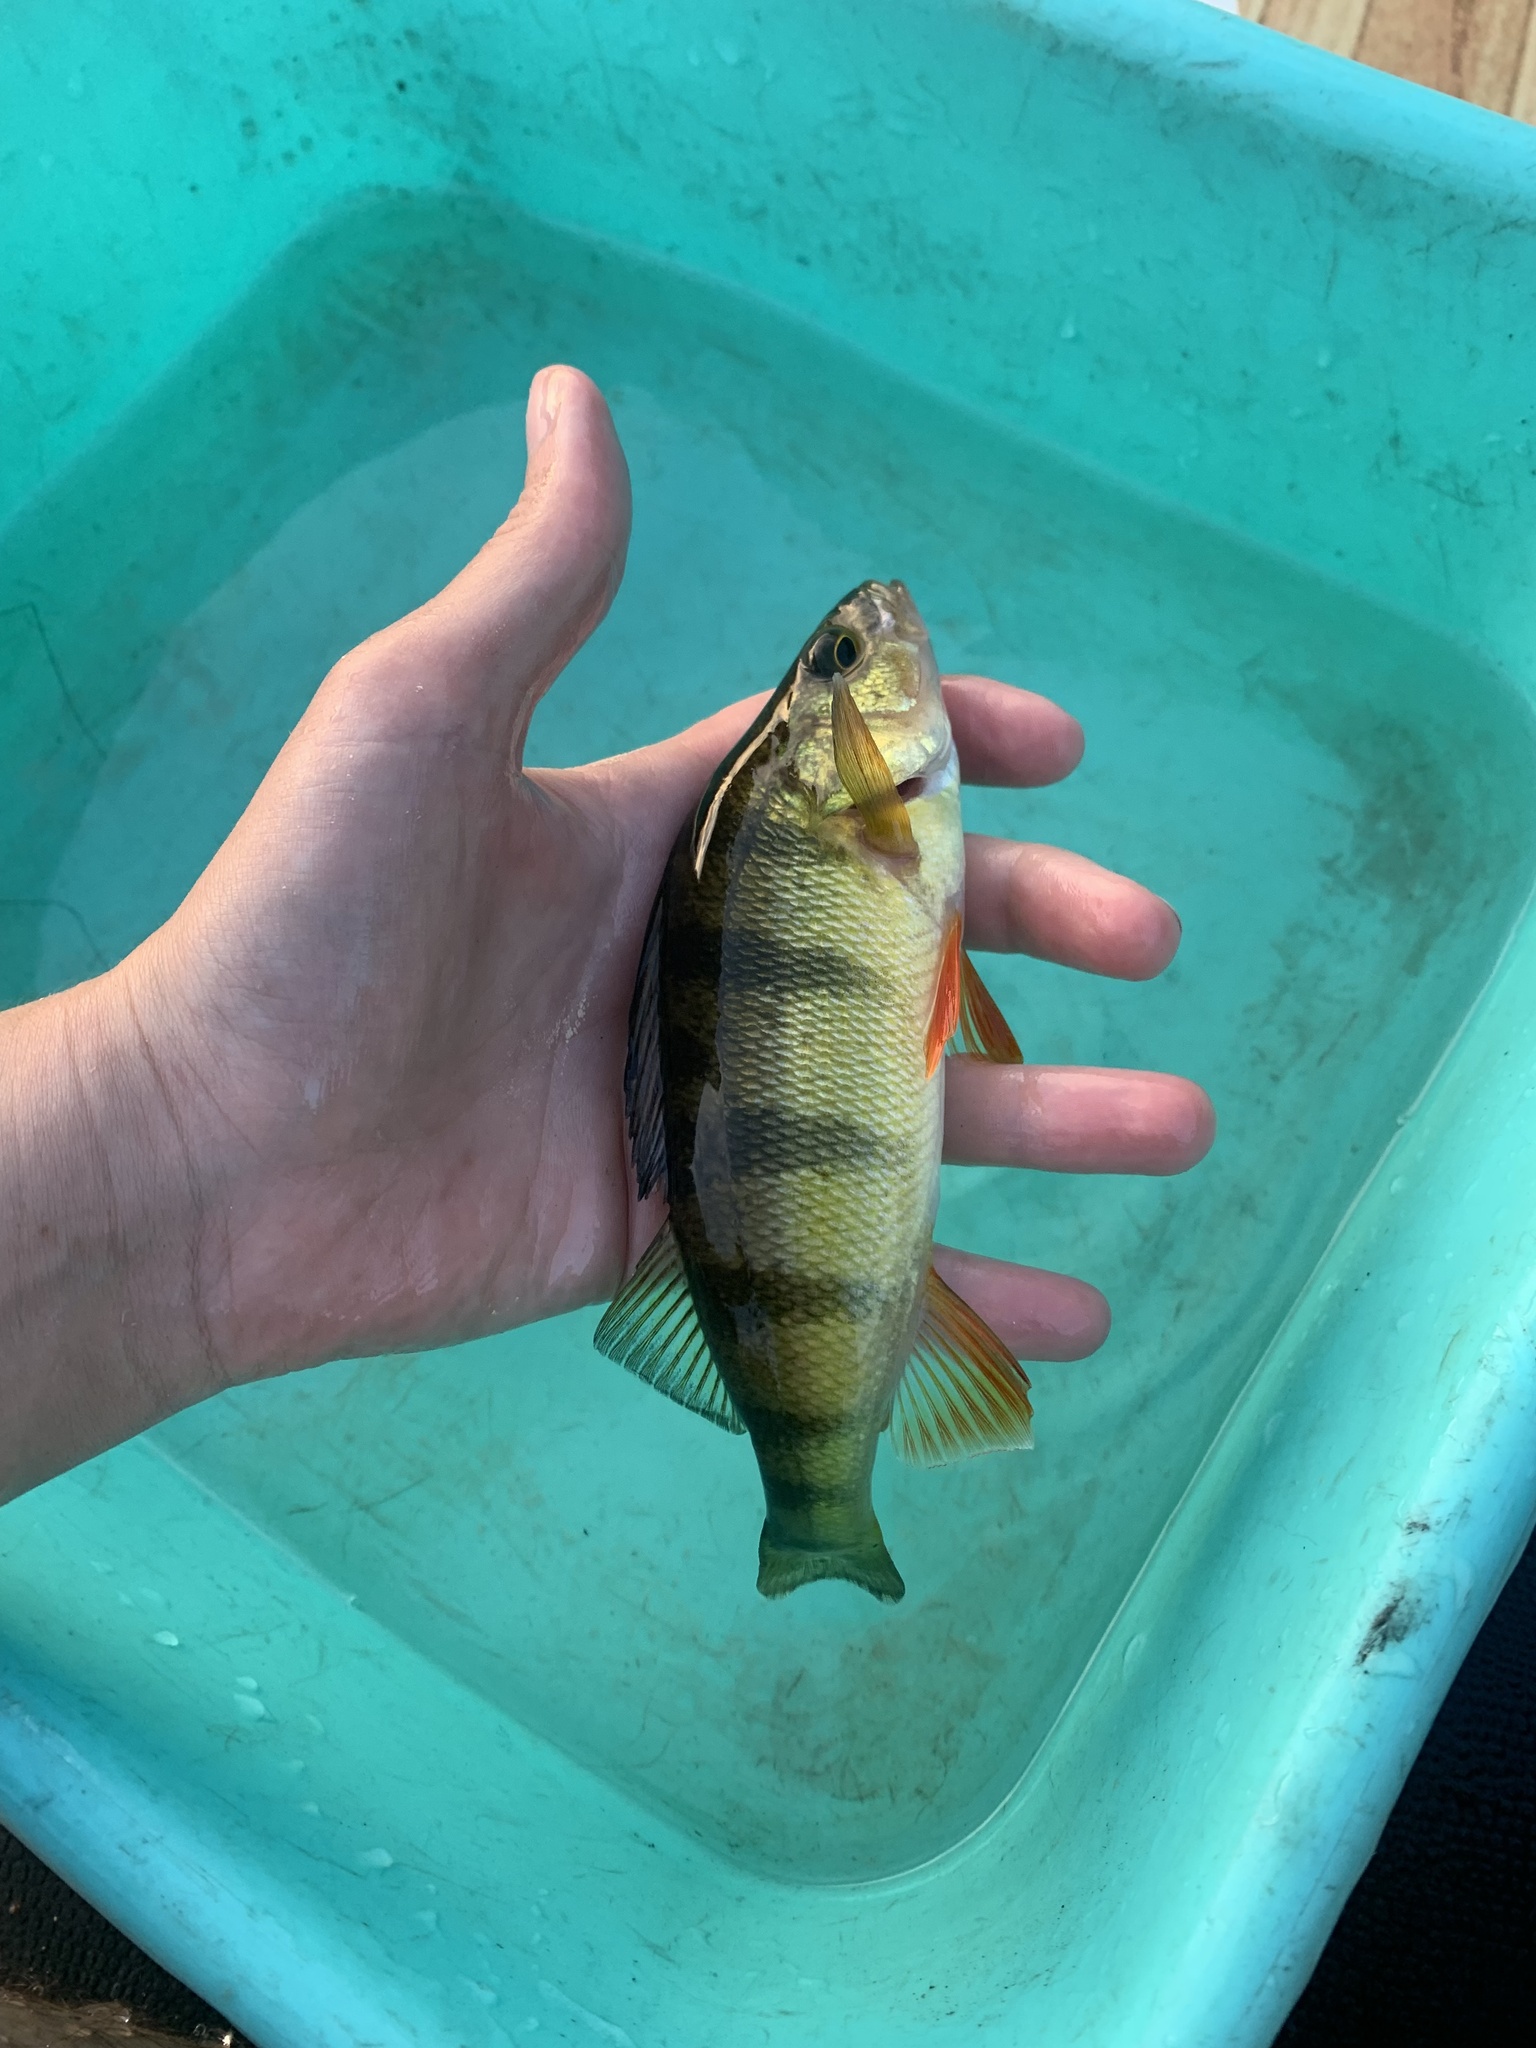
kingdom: Animalia
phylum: Chordata
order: Perciformes
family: Percidae
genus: Perca
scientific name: Perca flavescens
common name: Yellow perch
